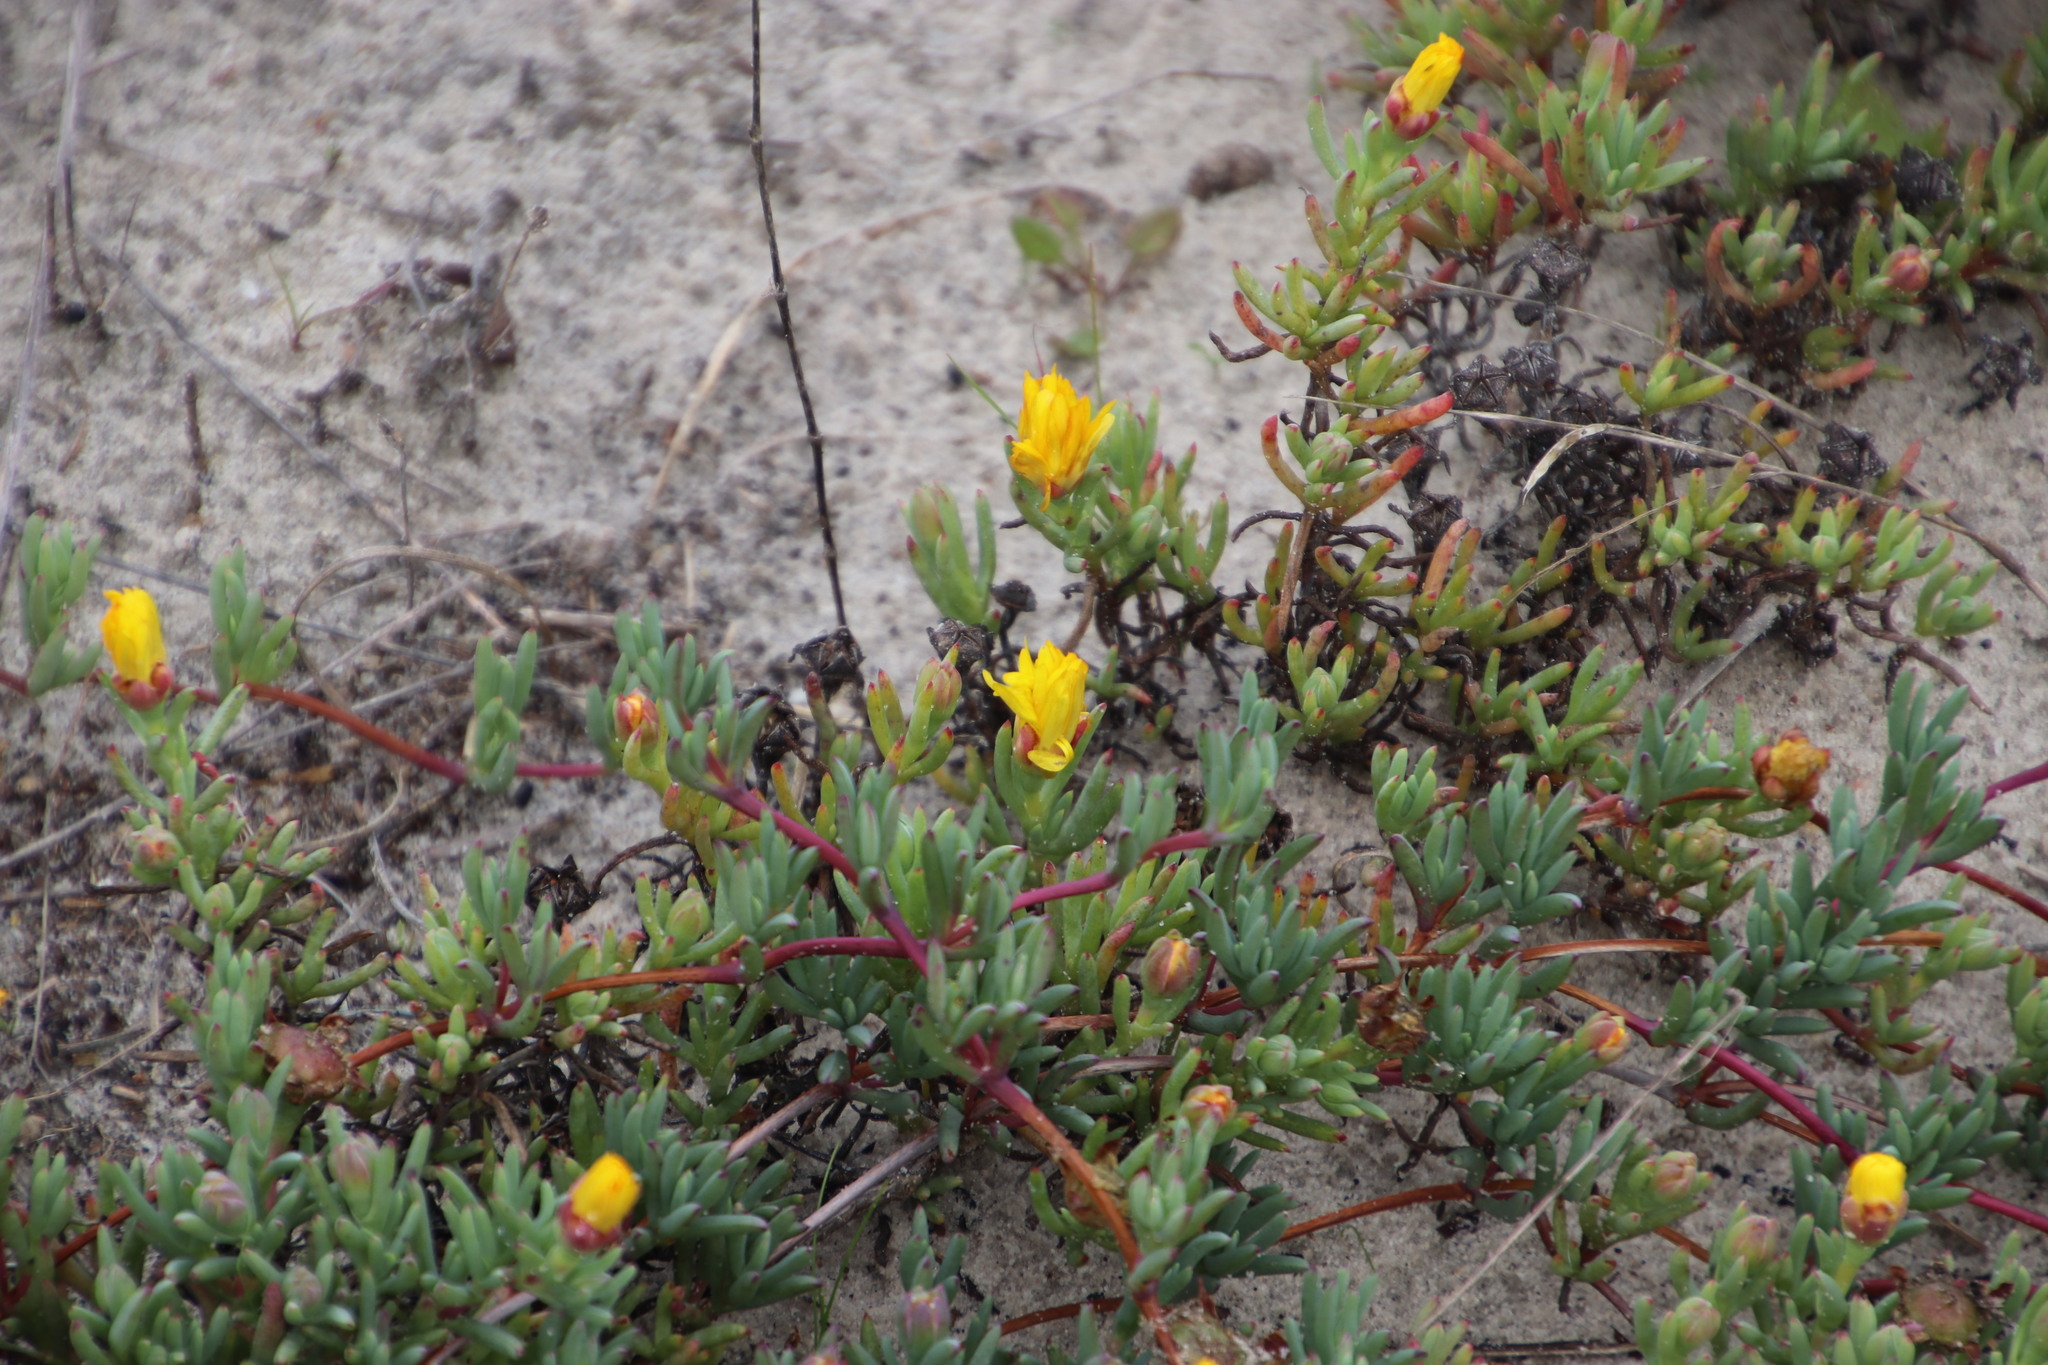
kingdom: Plantae
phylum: Tracheophyta
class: Magnoliopsida
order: Caryophyllales
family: Aizoaceae
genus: Lampranthus
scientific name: Lampranthus explanatus
